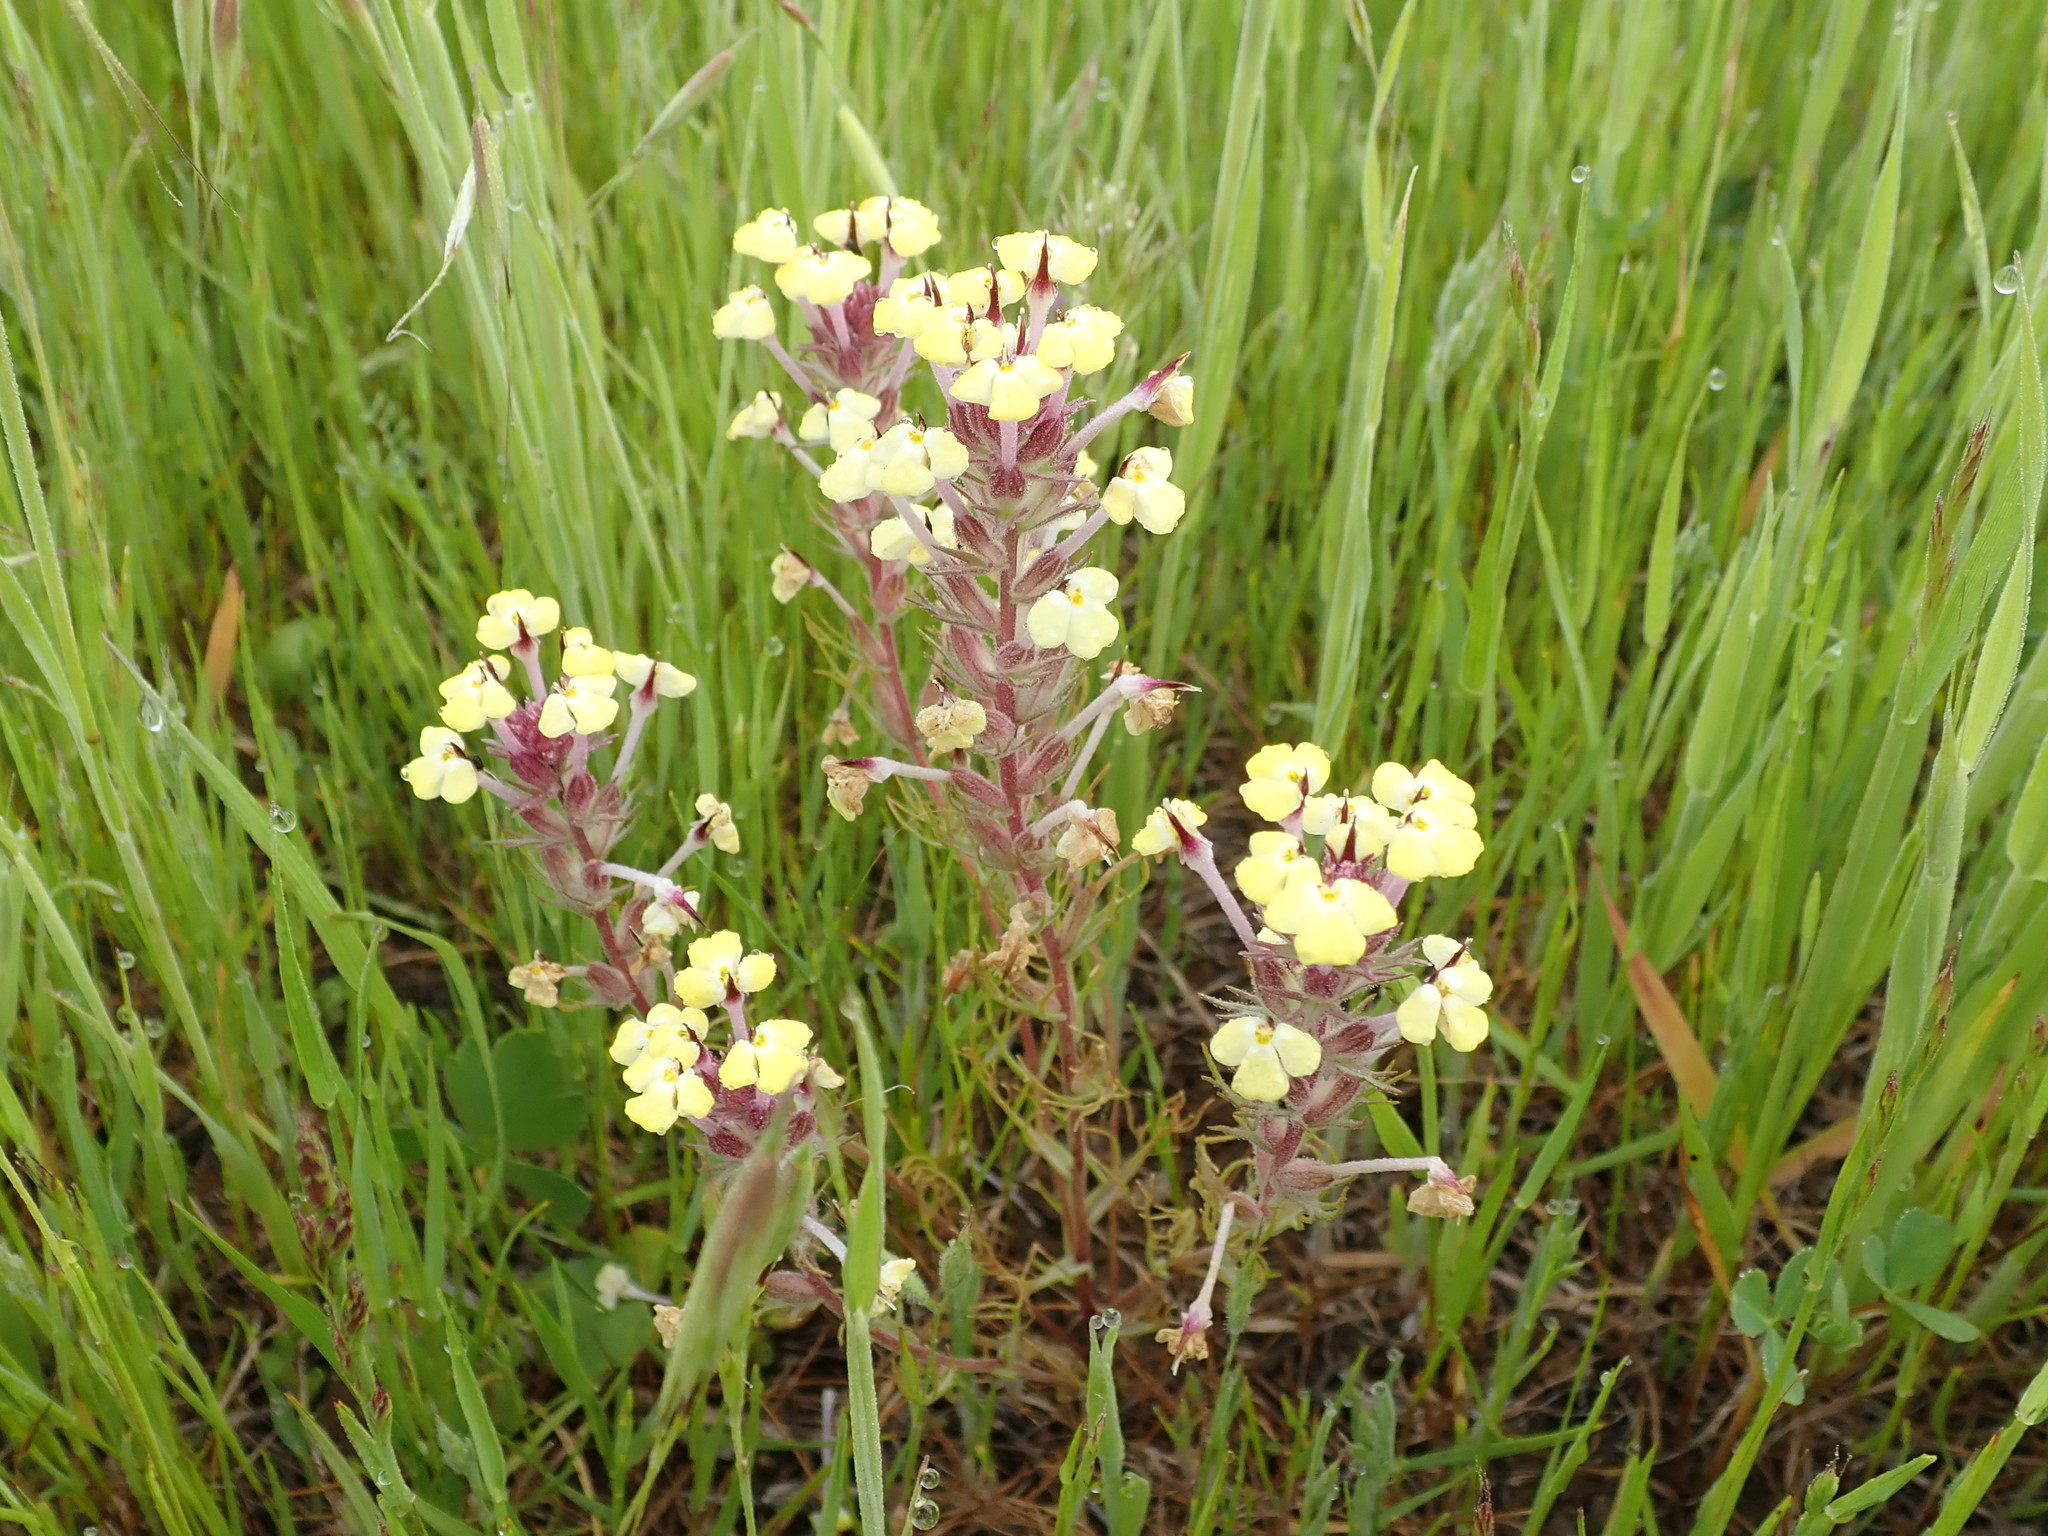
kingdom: Plantae
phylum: Tracheophyta
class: Magnoliopsida
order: Lamiales
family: Orobanchaceae
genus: Triphysaria
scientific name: Triphysaria eriantha
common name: Johnny-tuck
